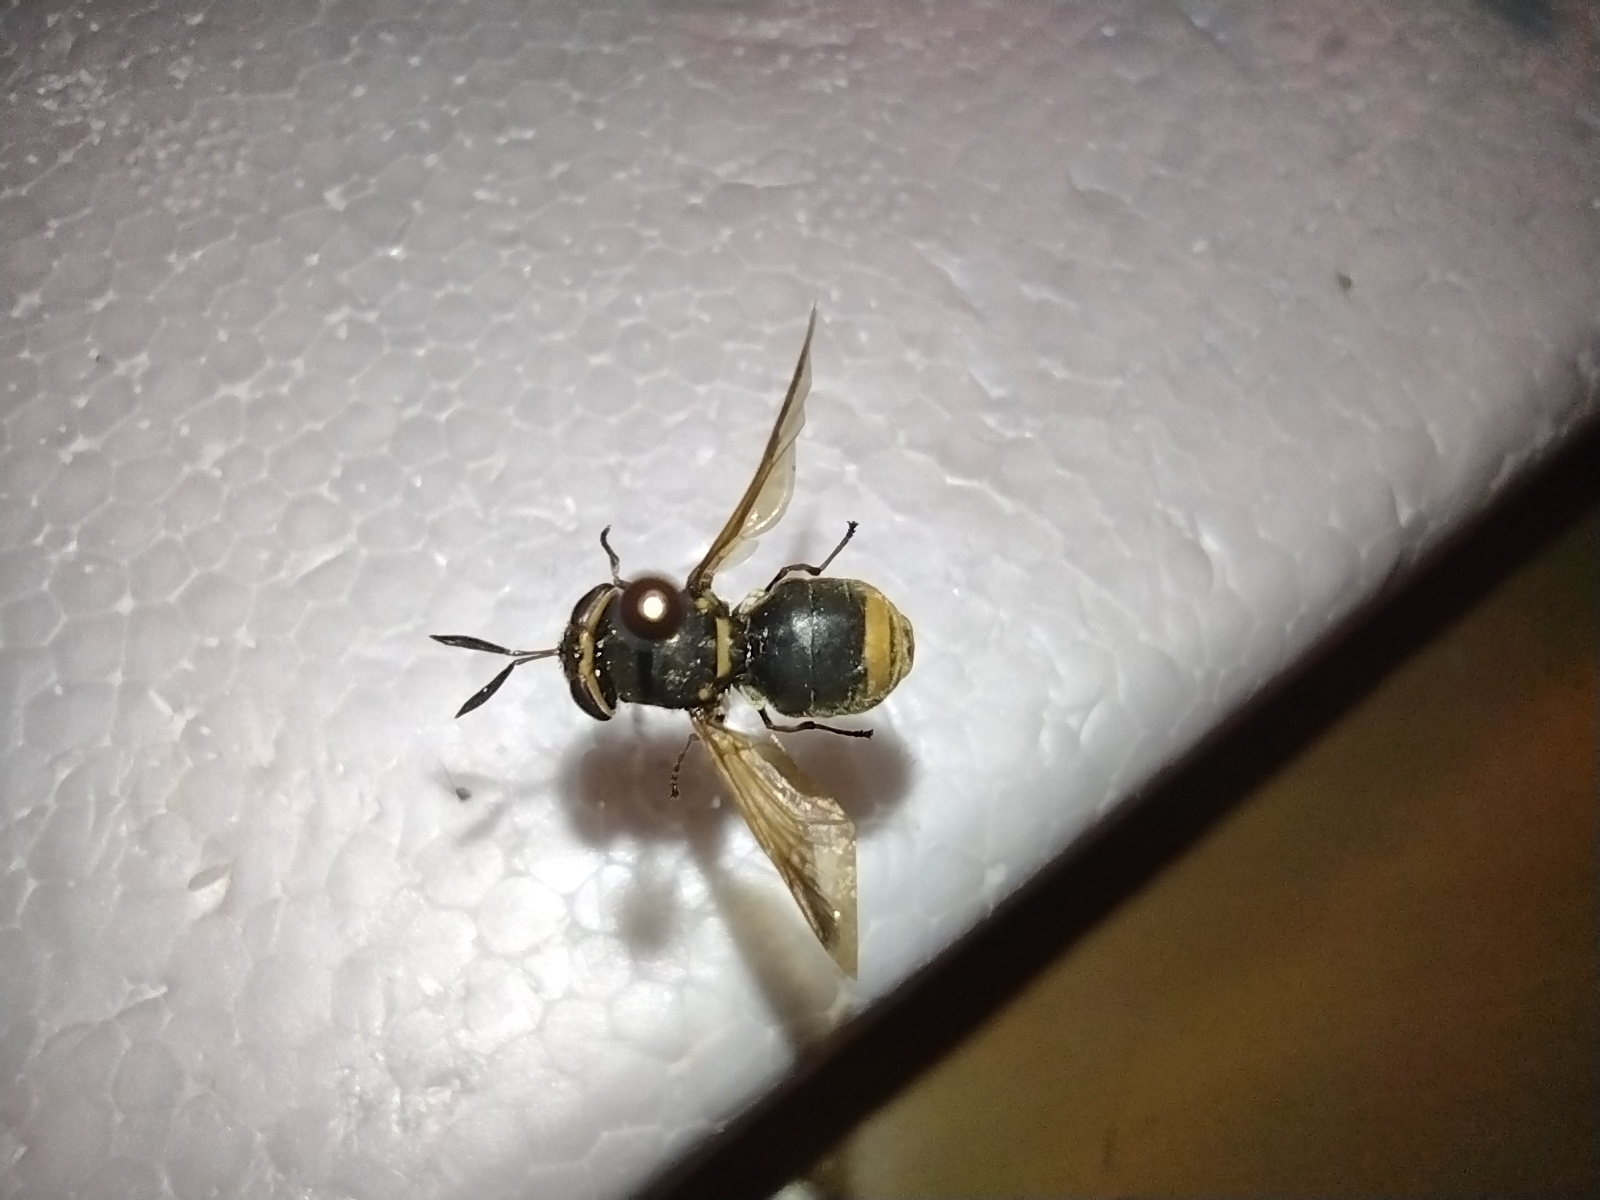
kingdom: Animalia
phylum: Arthropoda
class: Insecta
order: Diptera
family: Stratiomyidae
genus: Hoplitimyia
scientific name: Hoplitimyia mutabilis
